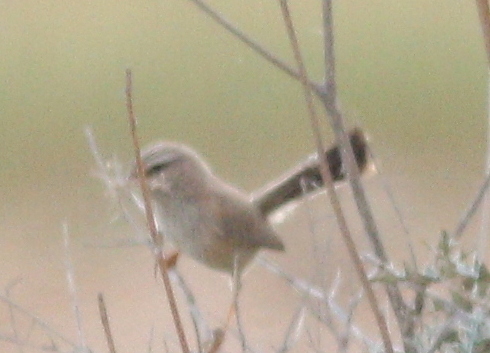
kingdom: Animalia
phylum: Chordata
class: Aves
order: Passeriformes
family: Scotocercidae
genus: Scotocerca
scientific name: Scotocerca inquieta
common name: Scrub warbler
